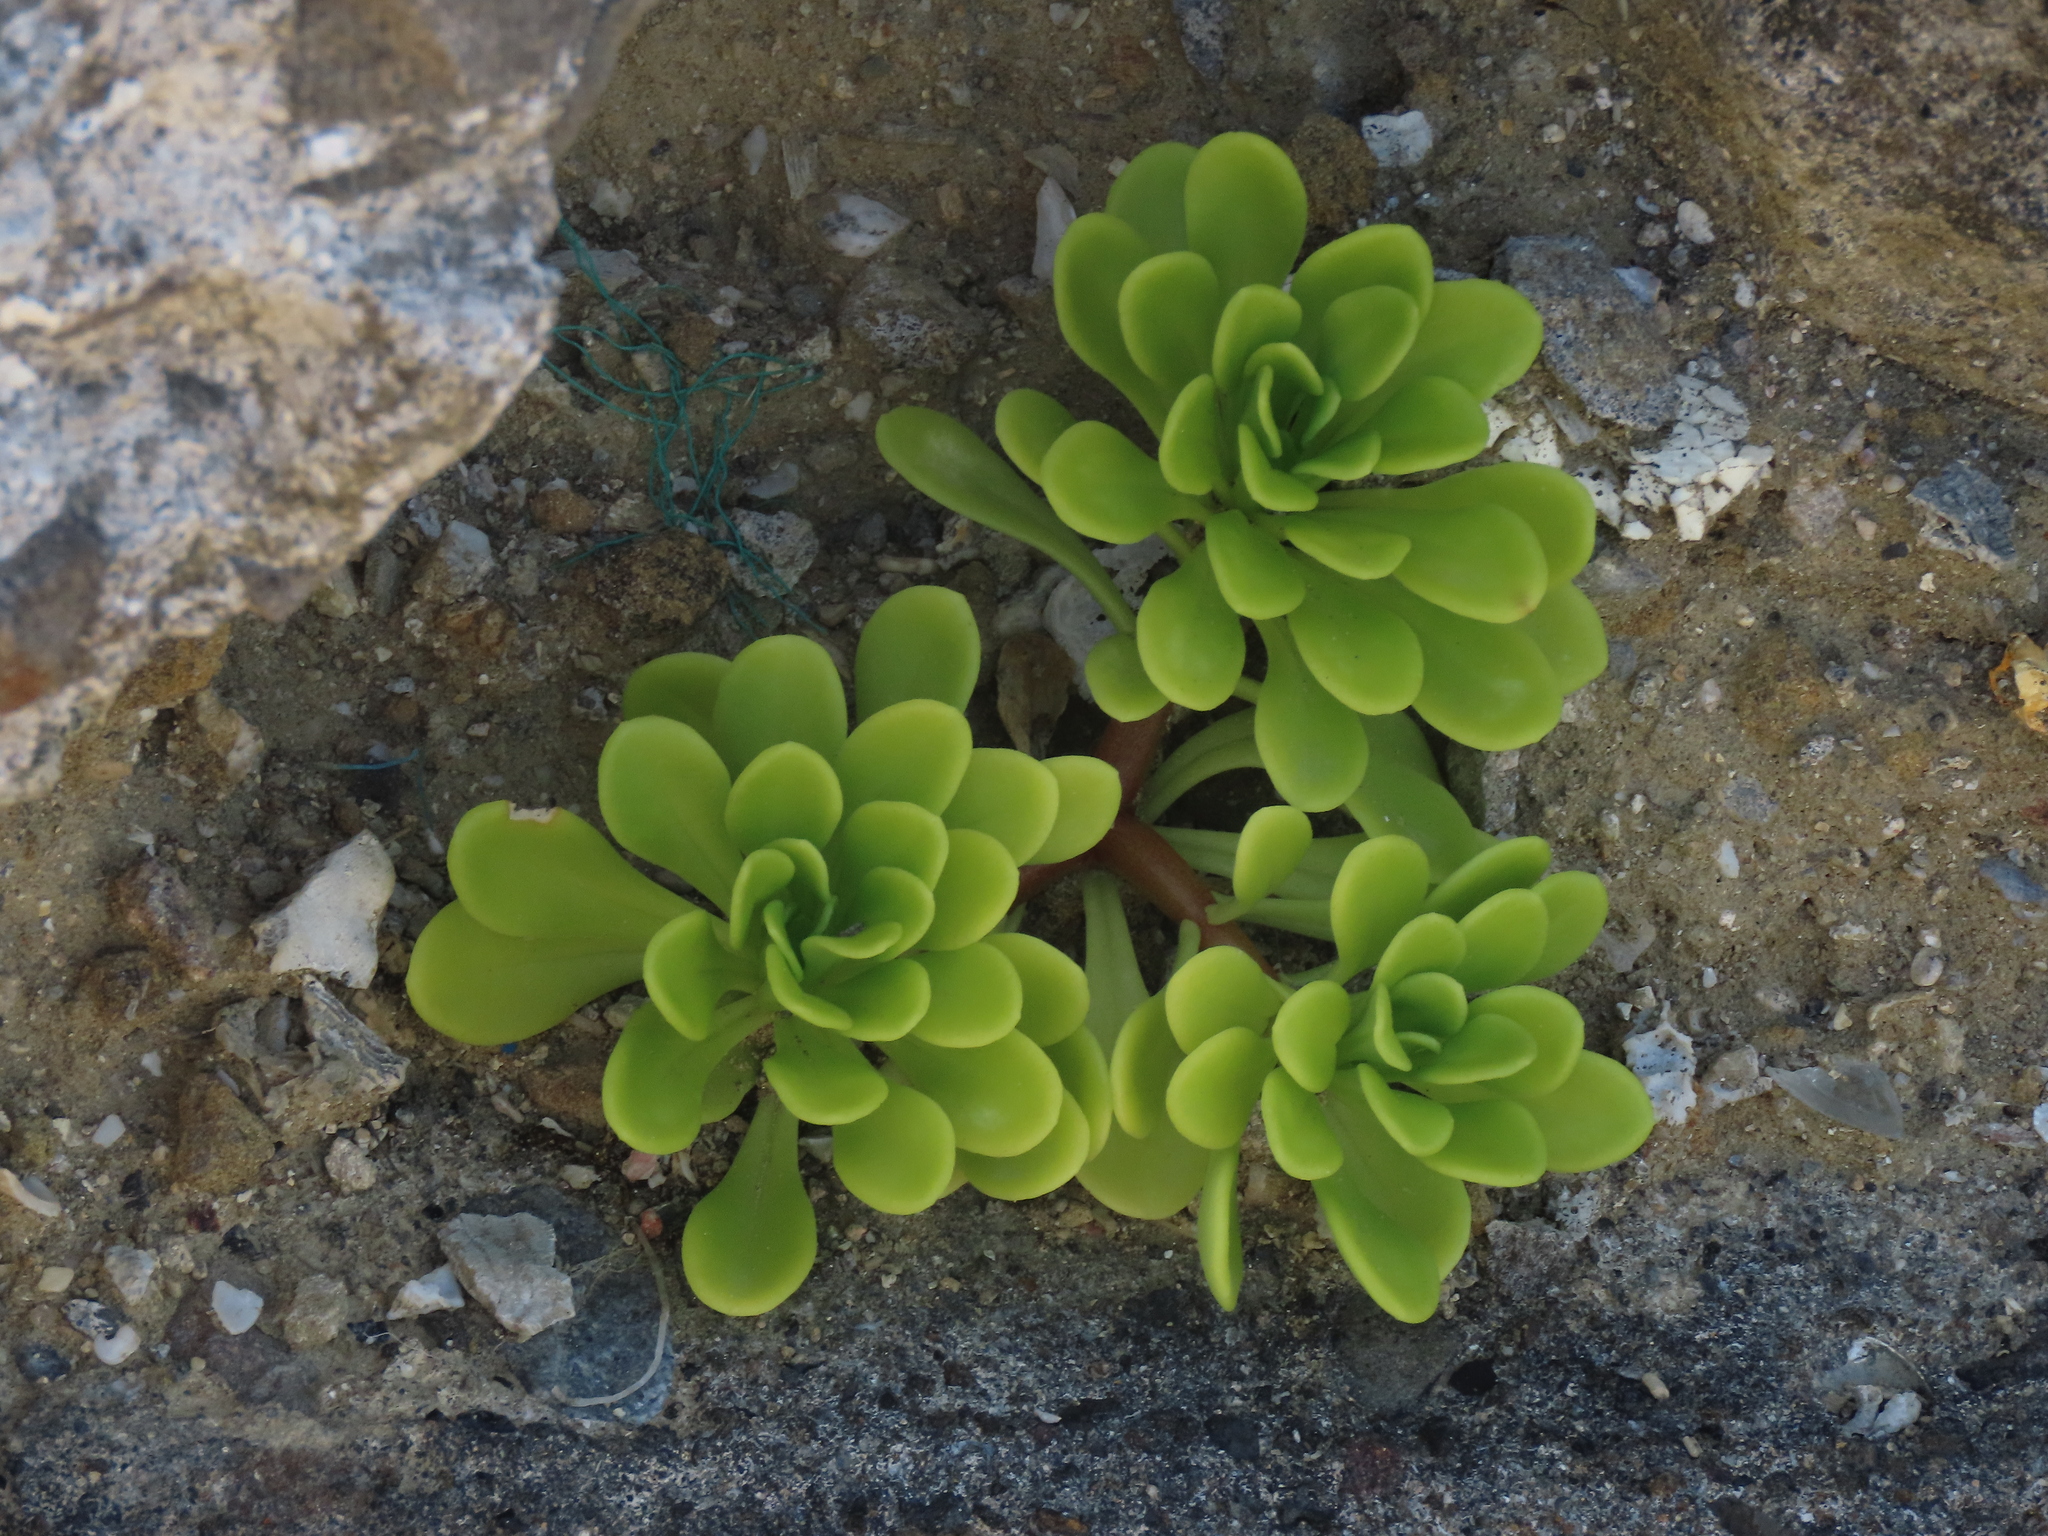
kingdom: Plantae
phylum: Tracheophyta
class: Magnoliopsida
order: Saxifragales
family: Crassulaceae
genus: Sedum
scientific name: Sedum formosanum
